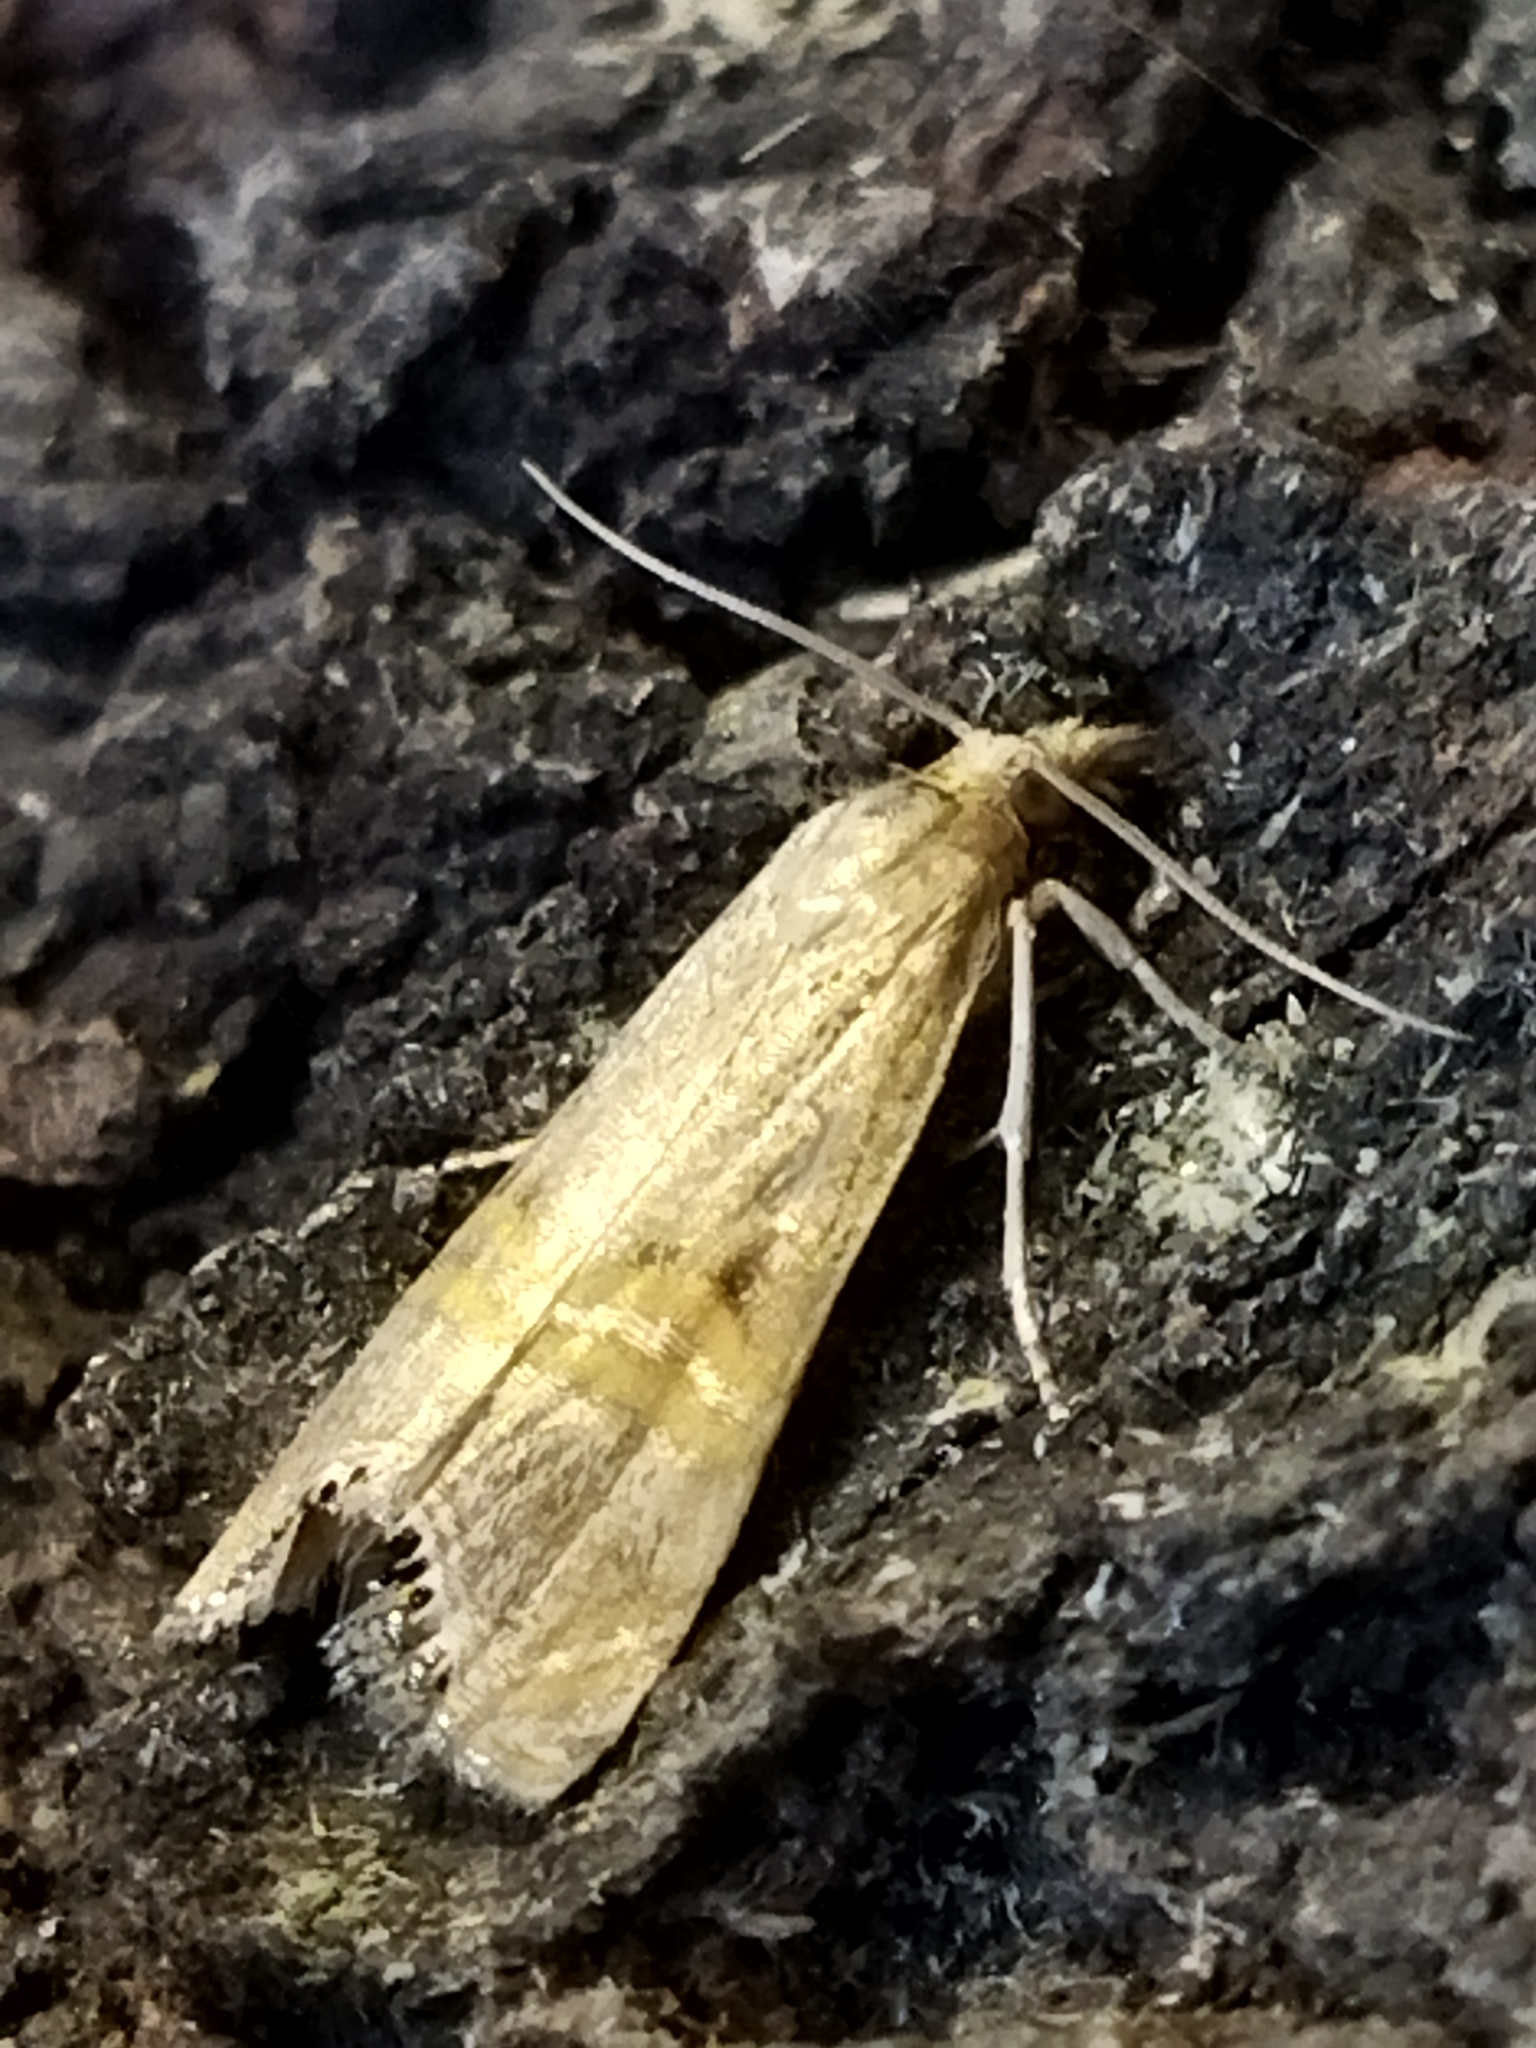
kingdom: Animalia
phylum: Arthropoda
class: Insecta
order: Lepidoptera
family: Crambidae
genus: Euchromius
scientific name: Euchromius ocellea
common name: Necklace veneer moth
